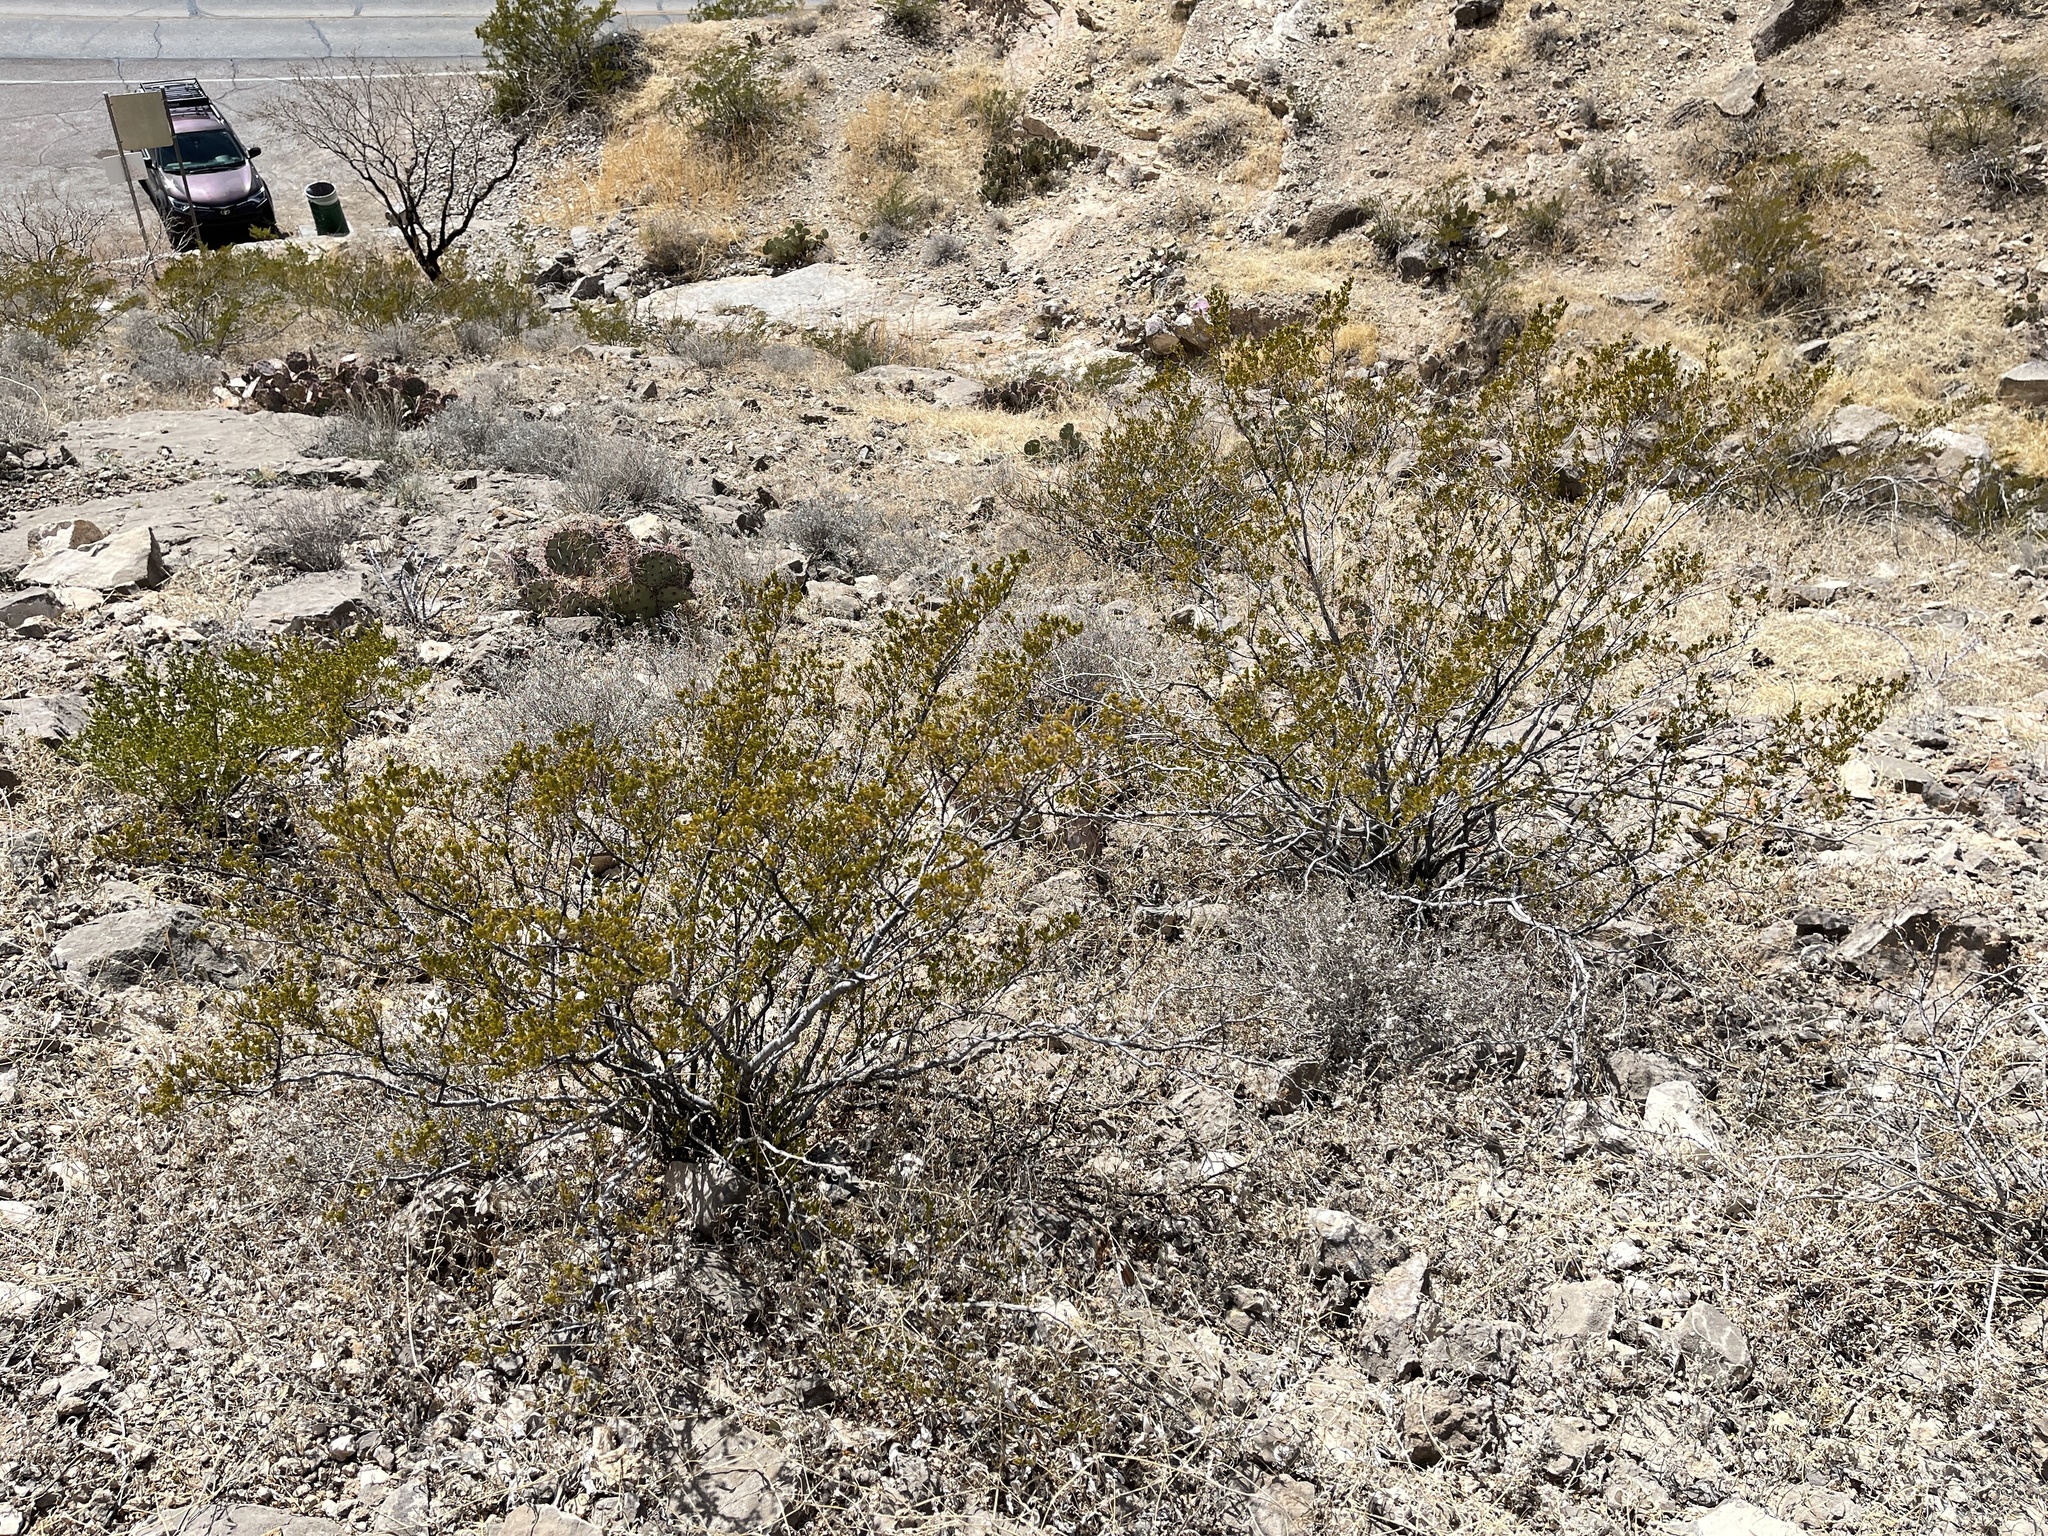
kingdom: Plantae
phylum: Tracheophyta
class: Magnoliopsida
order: Zygophyllales
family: Zygophyllaceae
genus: Larrea
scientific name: Larrea tridentata
